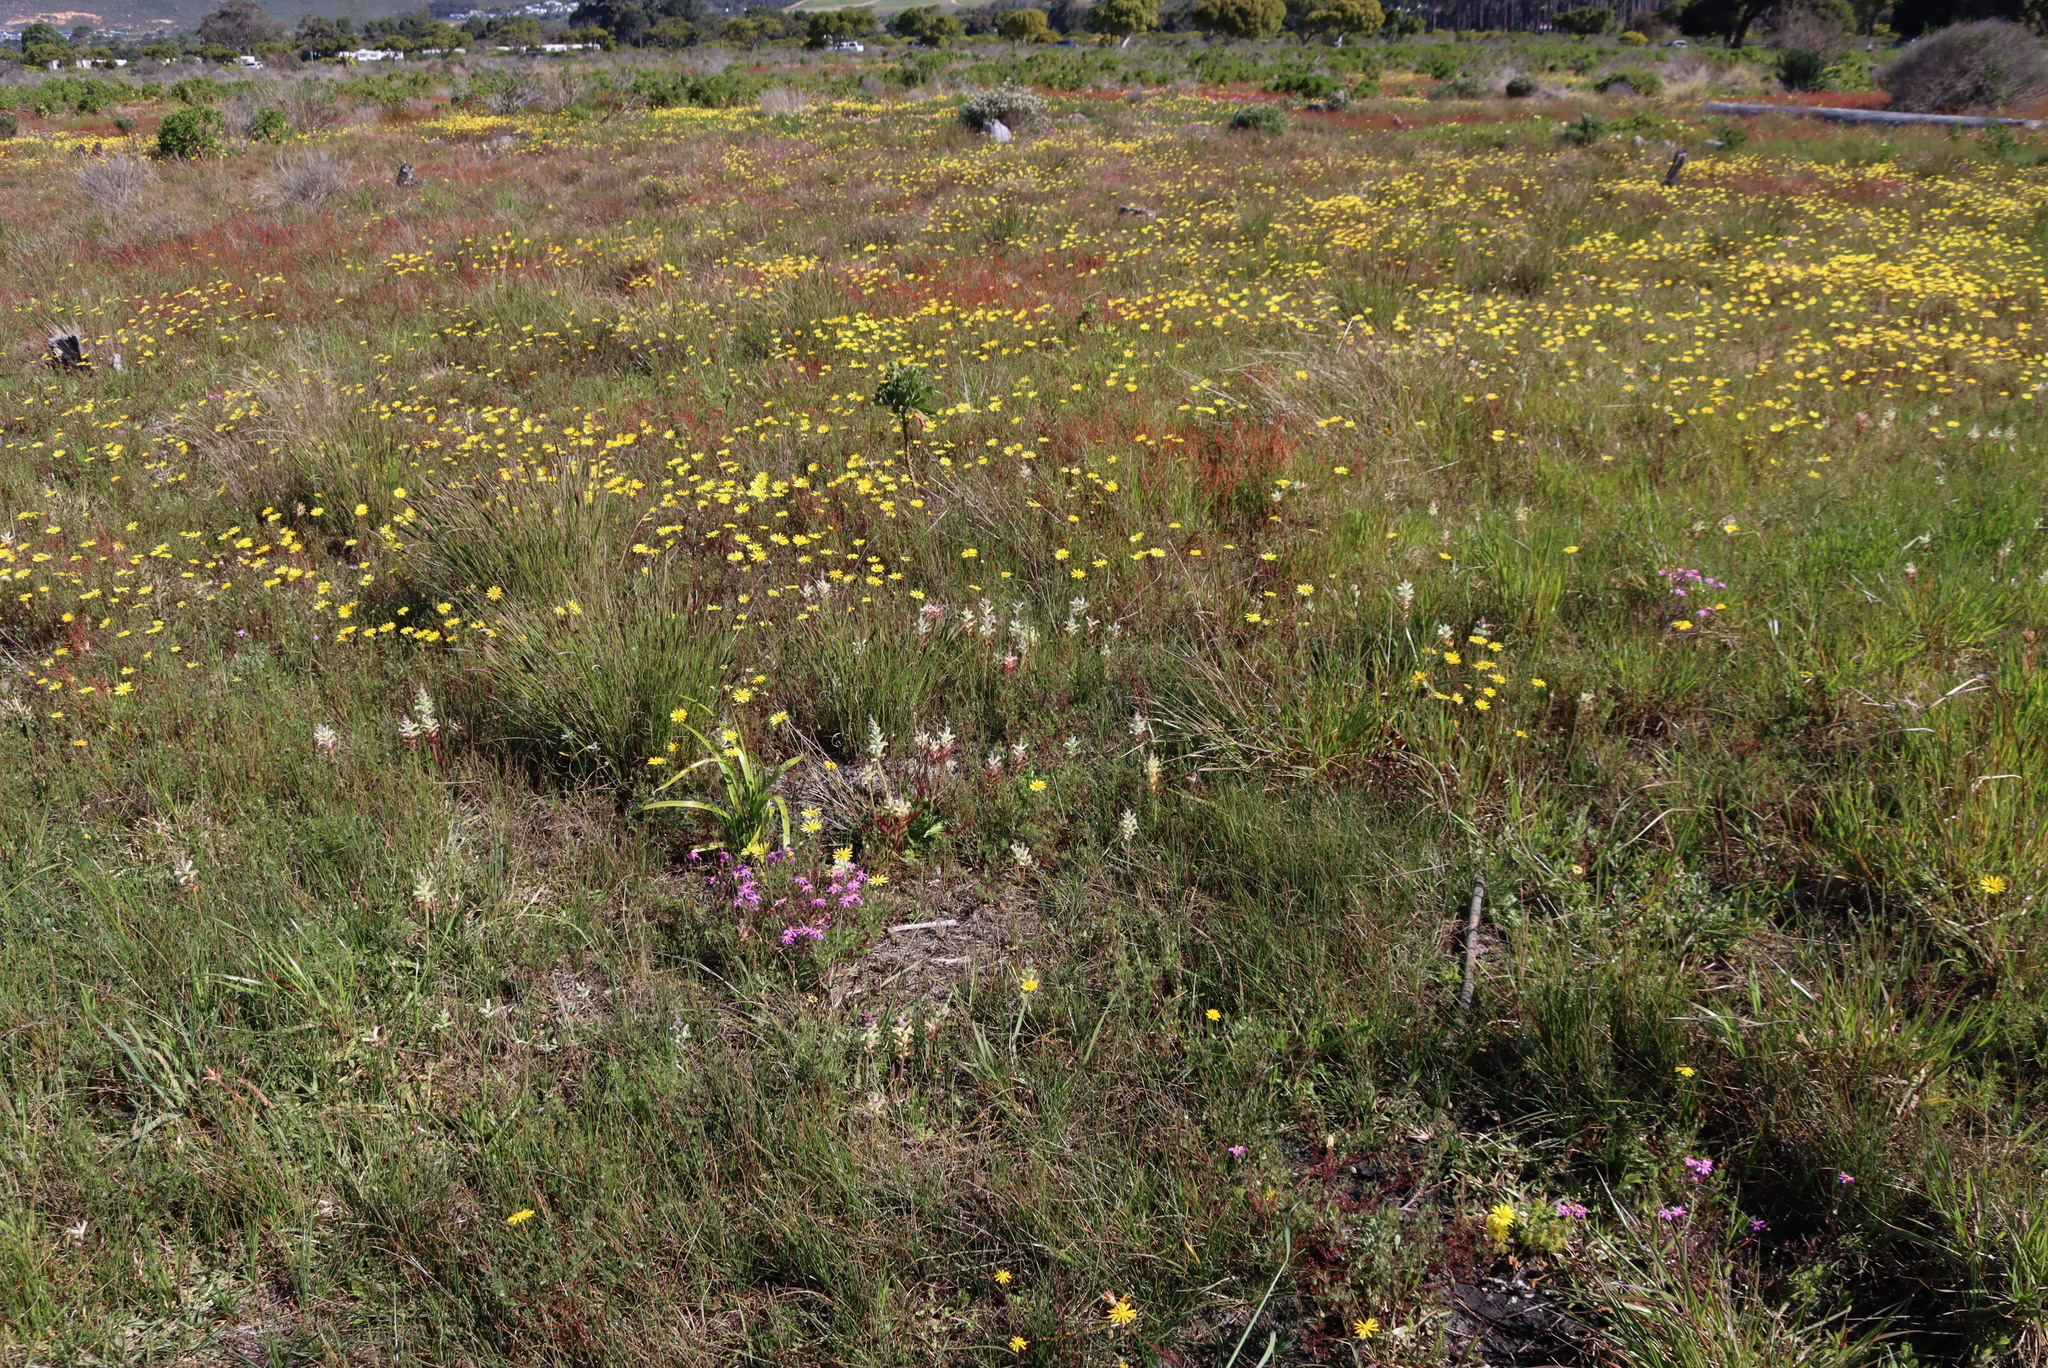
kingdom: Plantae
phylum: Tracheophyta
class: Liliopsida
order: Asparagales
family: Asparagaceae
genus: Lachenalia
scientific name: Lachenalia orchioides
